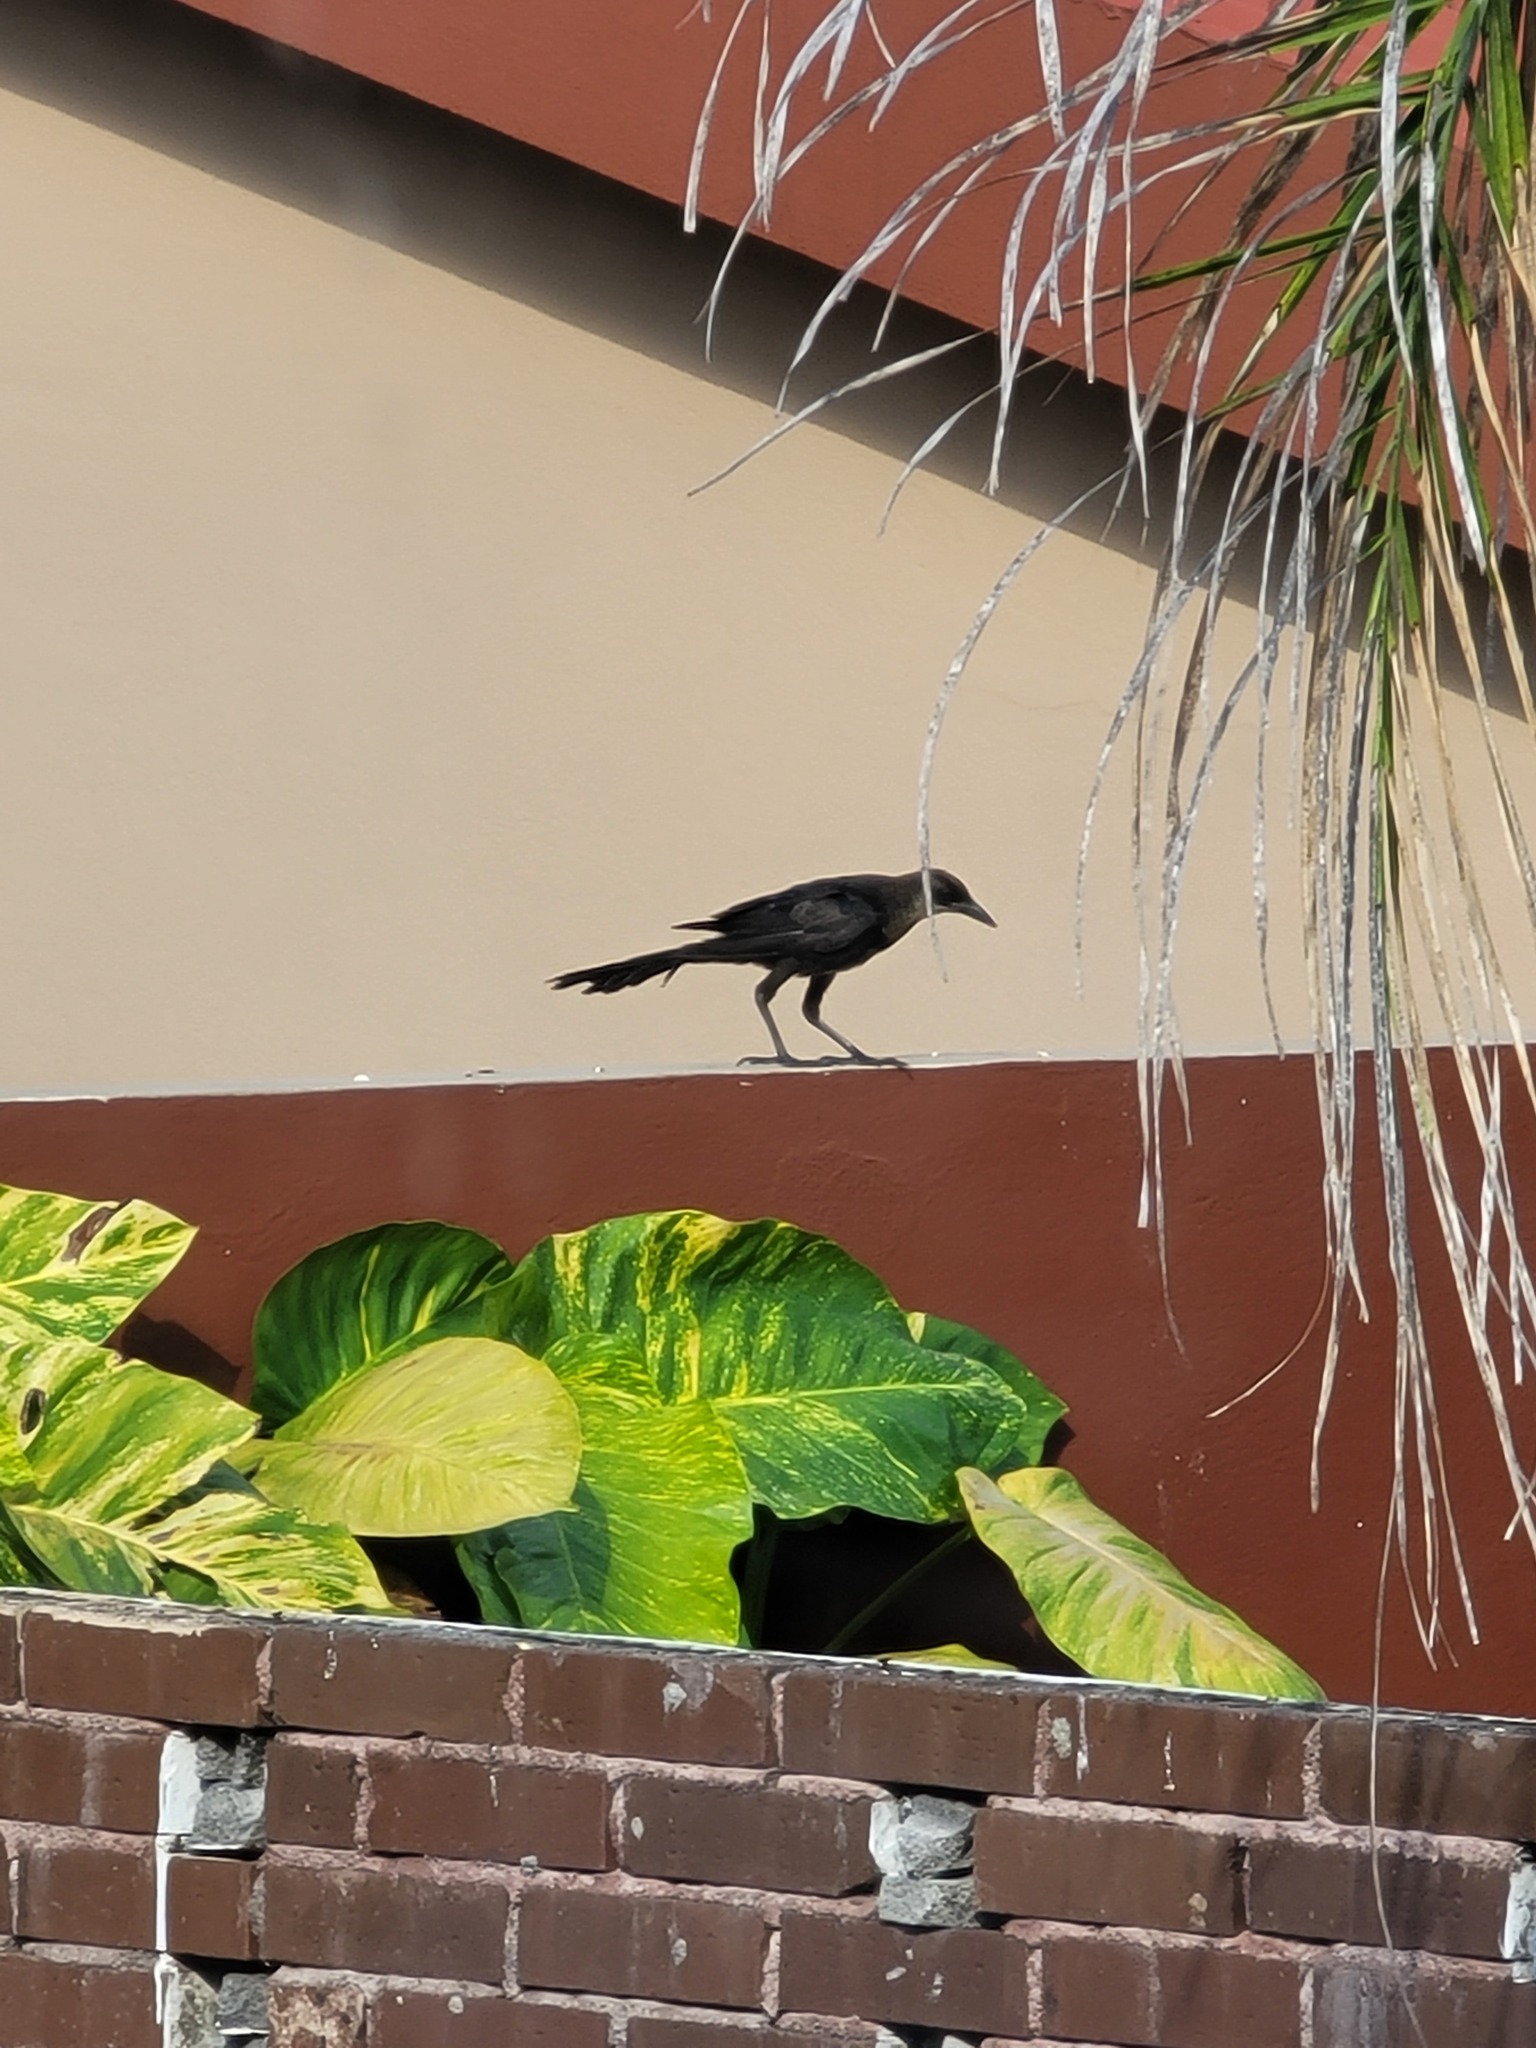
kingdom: Animalia
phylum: Chordata
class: Aves
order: Passeriformes
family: Icteridae
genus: Quiscalus
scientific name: Quiscalus mexicanus
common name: Great-tailed grackle
